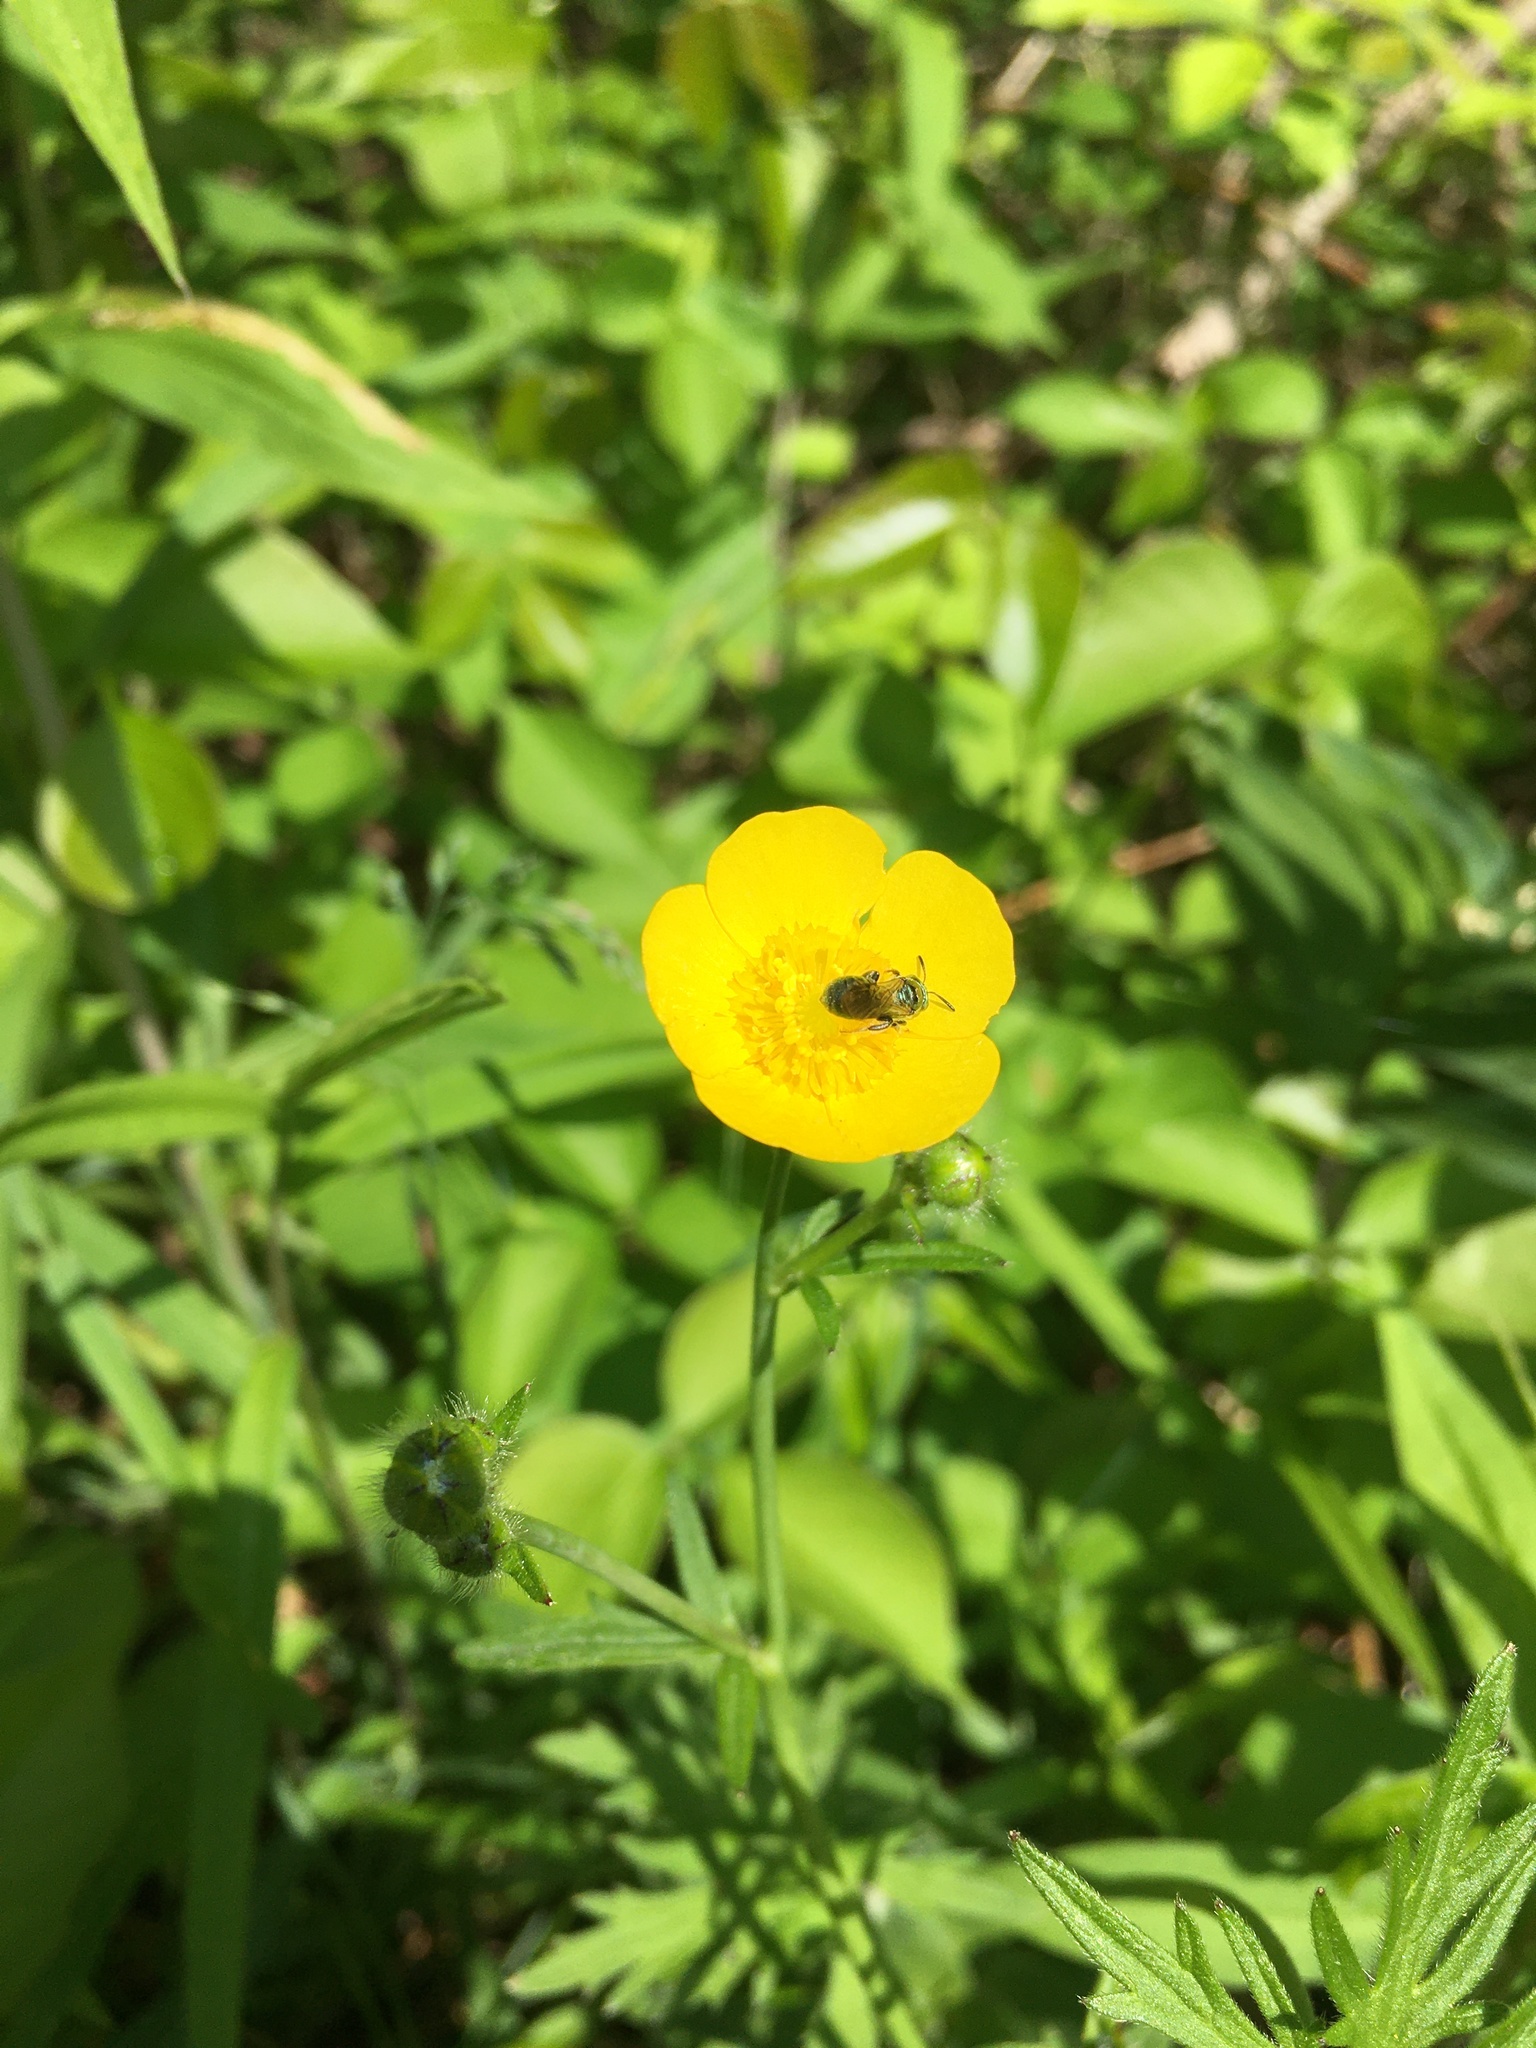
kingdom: Plantae
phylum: Tracheophyta
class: Magnoliopsida
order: Ranunculales
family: Ranunculaceae
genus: Ranunculus
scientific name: Ranunculus acris
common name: Meadow buttercup
